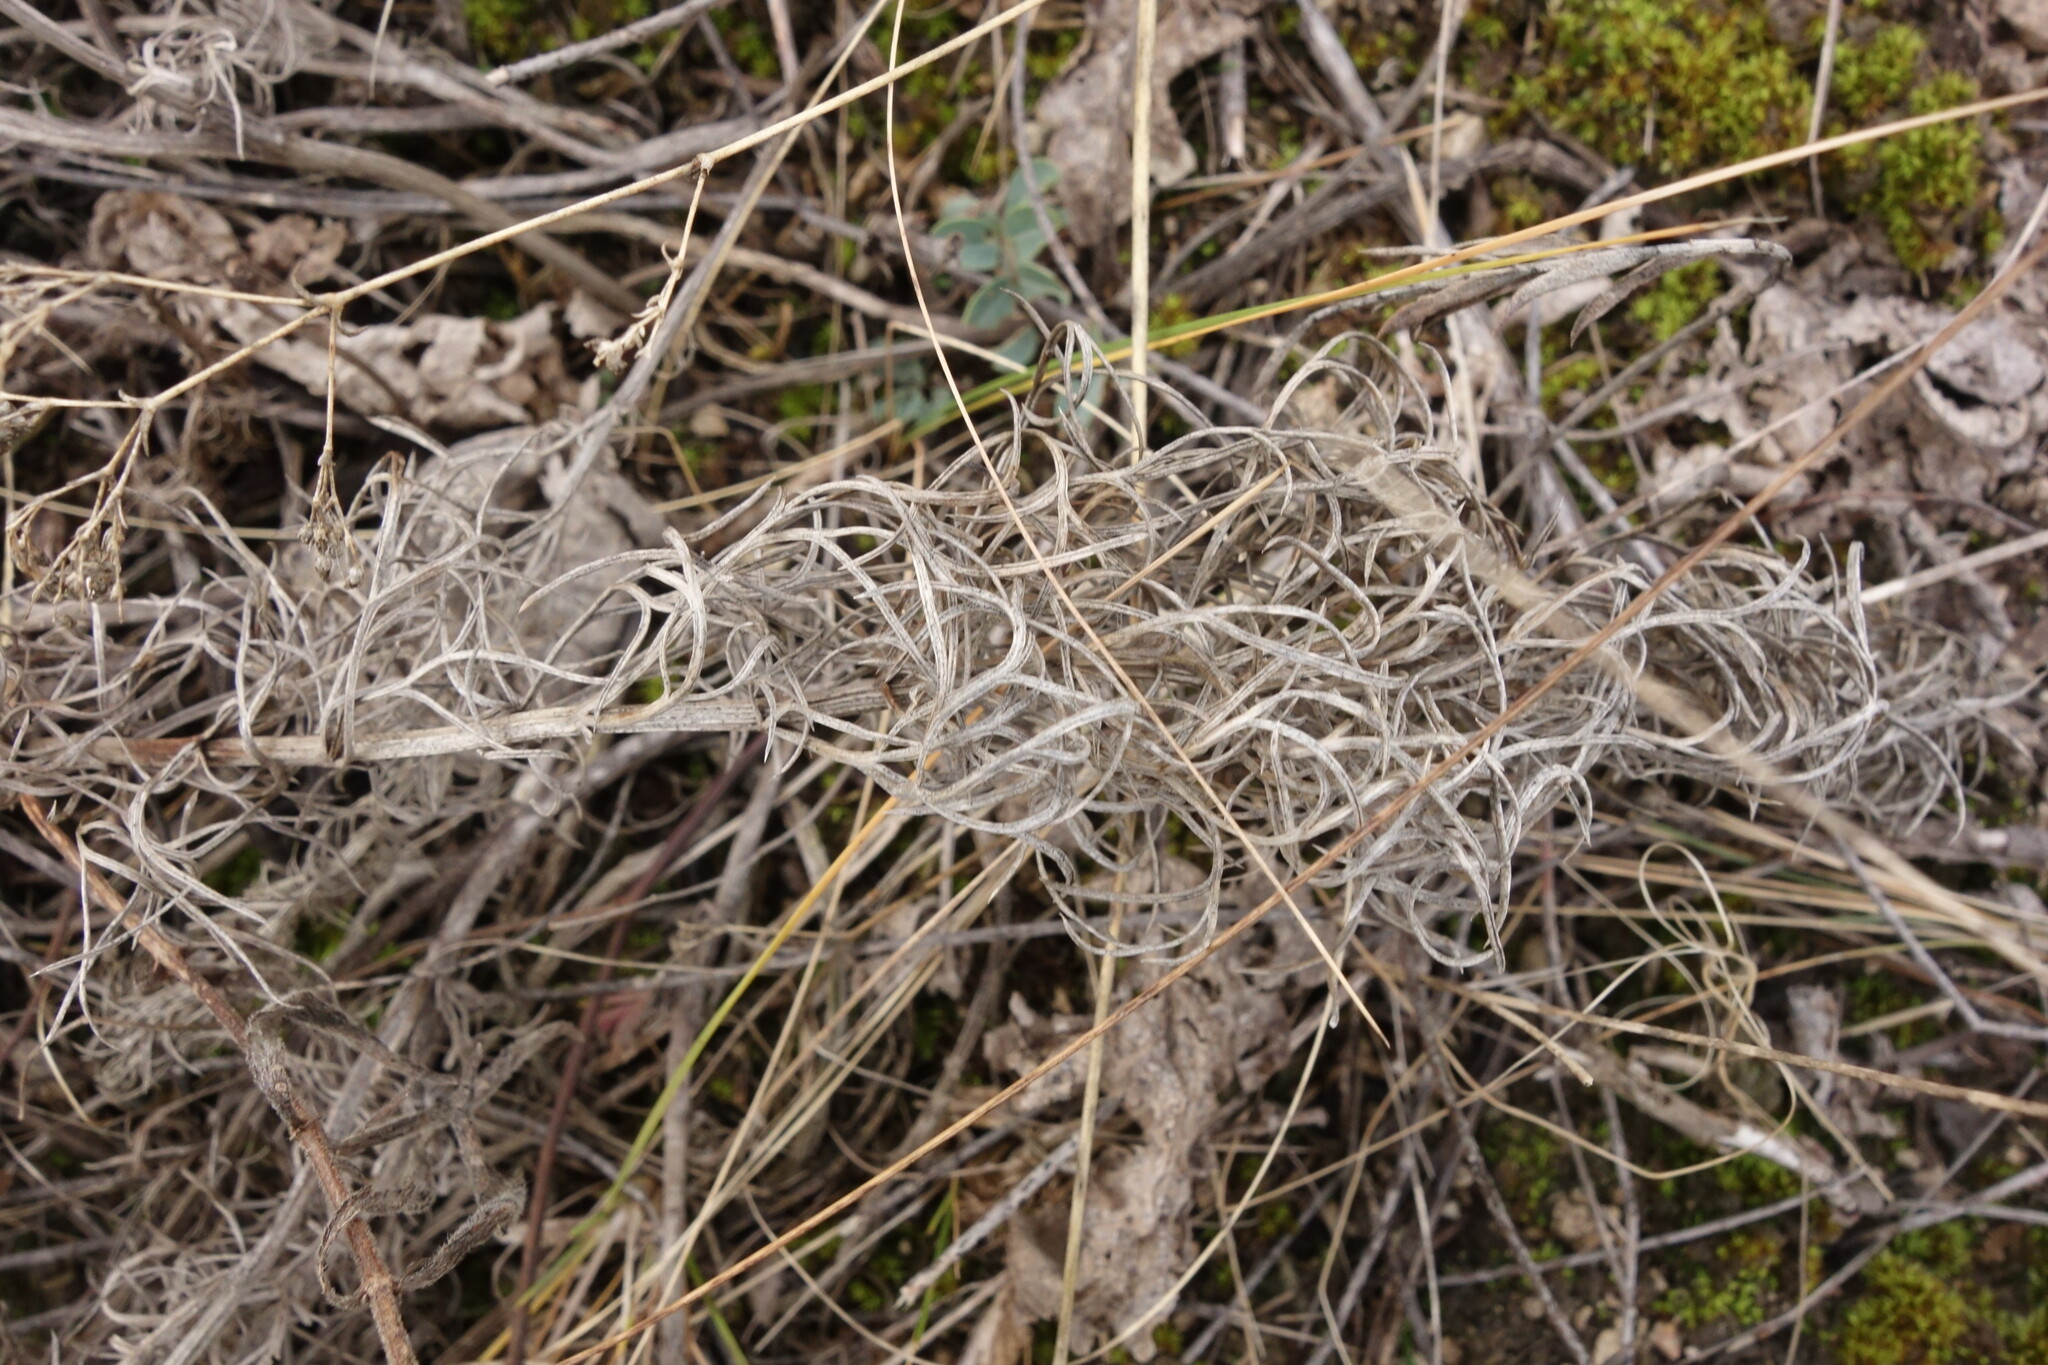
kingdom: Plantae
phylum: Tracheophyta
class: Magnoliopsida
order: Ranunculales
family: Ranunculaceae
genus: Adonis
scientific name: Adonis vernalis
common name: Yellow pheasants-eye
